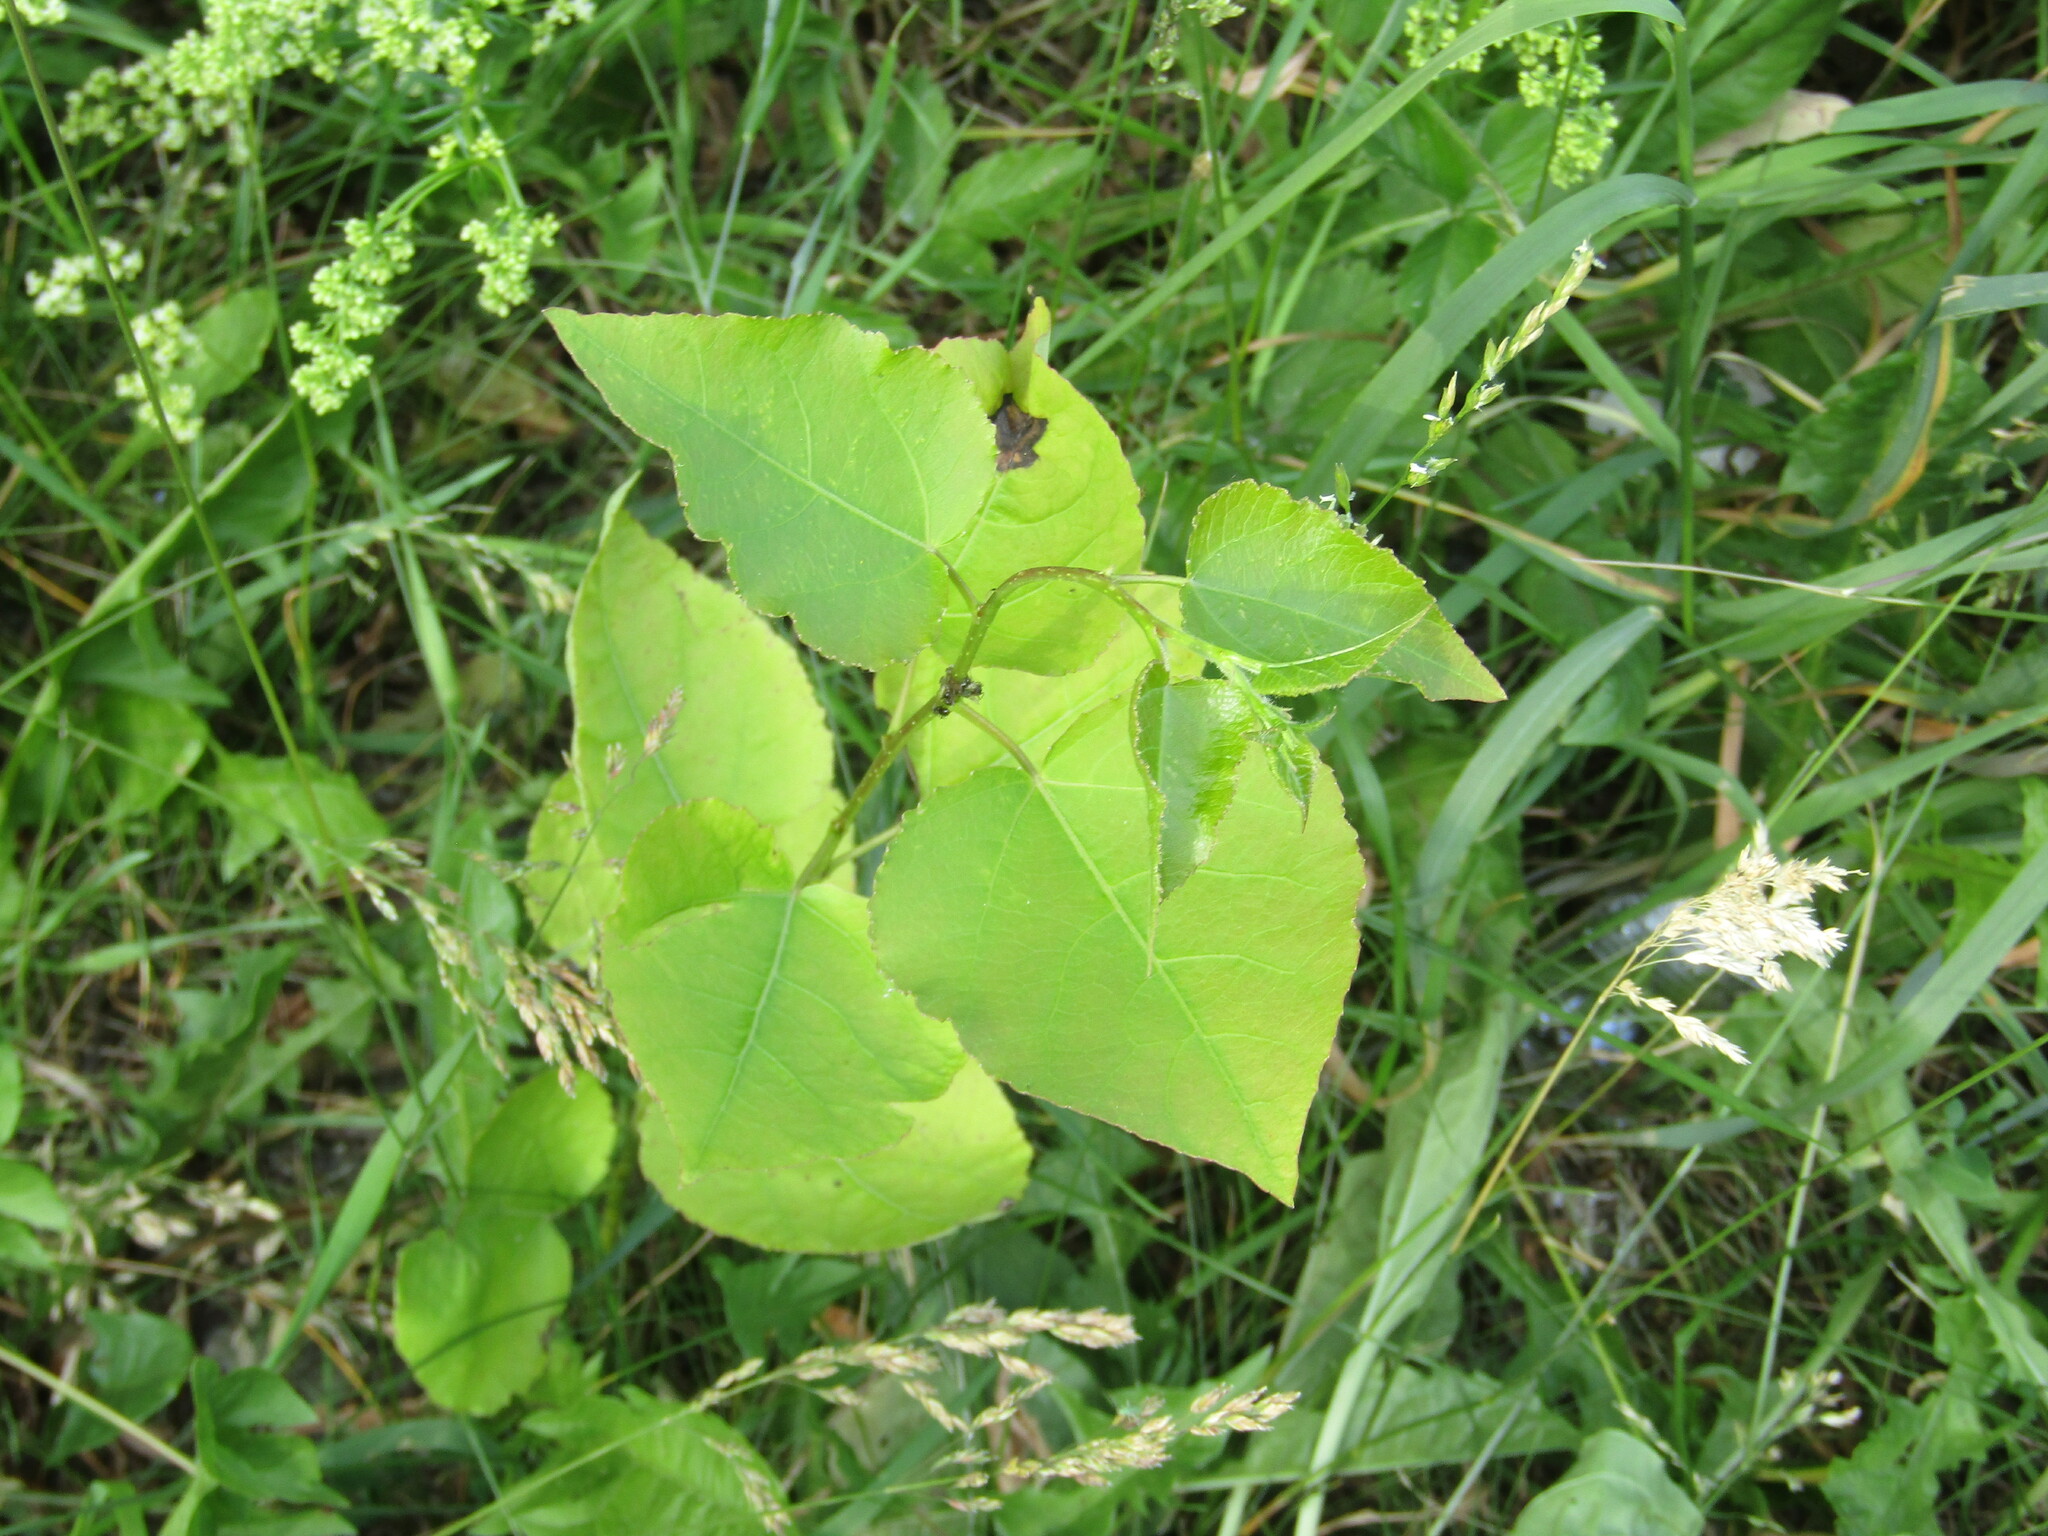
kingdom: Plantae
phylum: Tracheophyta
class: Magnoliopsida
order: Malpighiales
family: Salicaceae
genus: Populus
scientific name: Populus tremula
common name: European aspen
